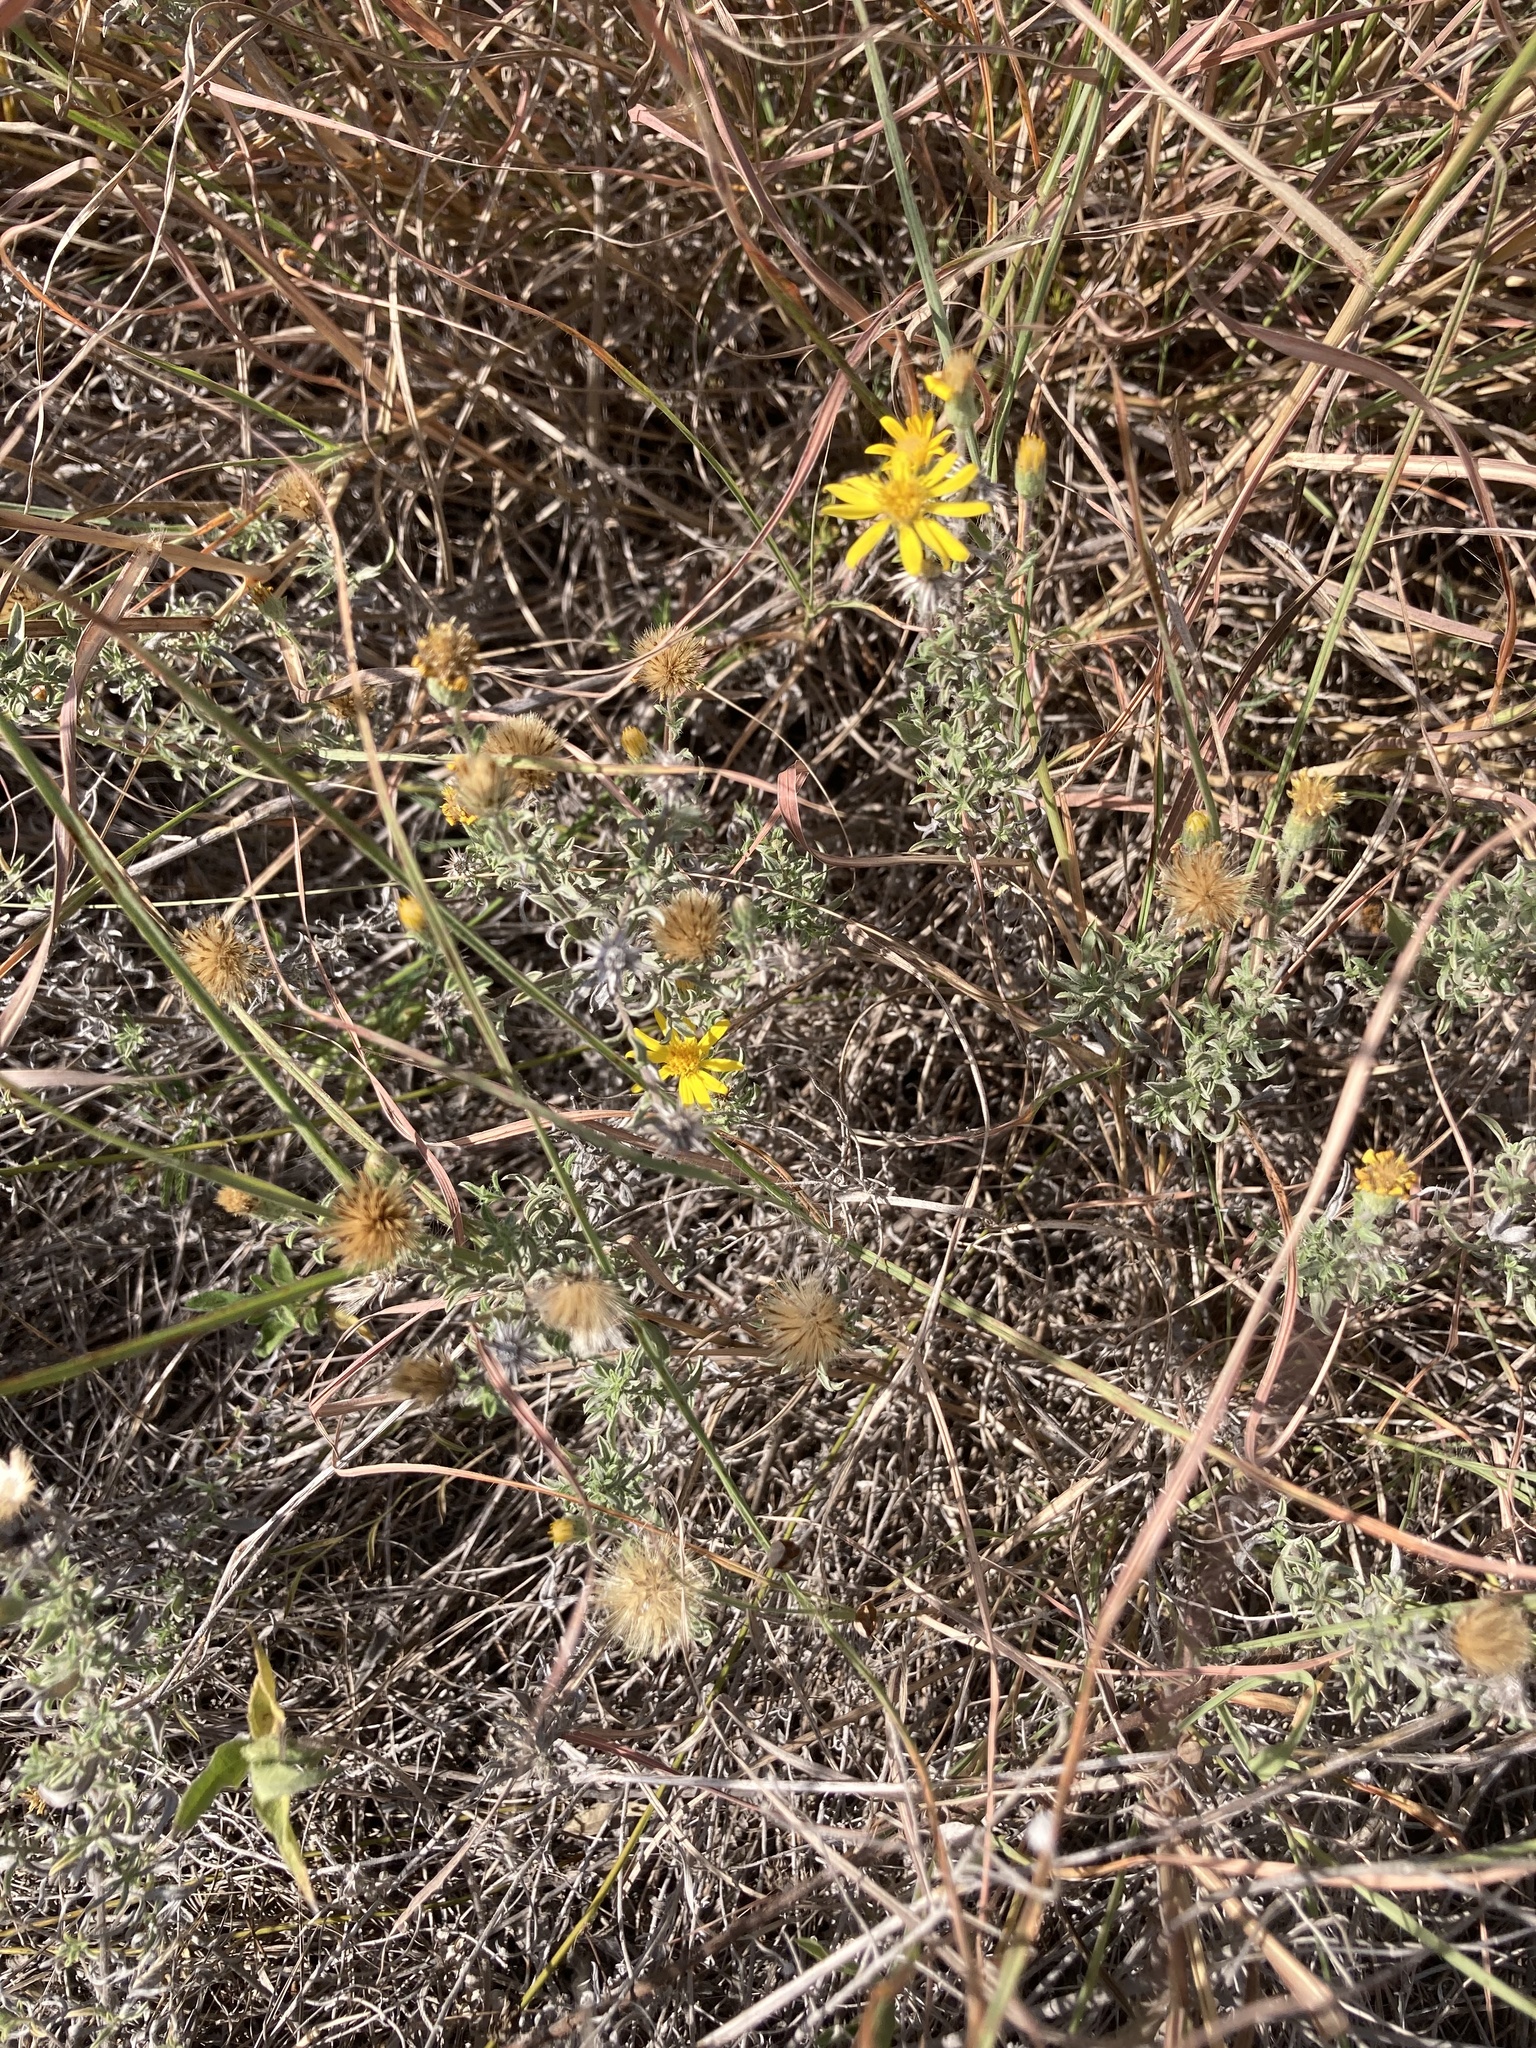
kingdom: Plantae
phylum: Tracheophyta
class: Magnoliopsida
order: Asterales
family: Asteraceae
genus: Heterotheca
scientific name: Heterotheca canescens
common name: Hoary golden-aster
